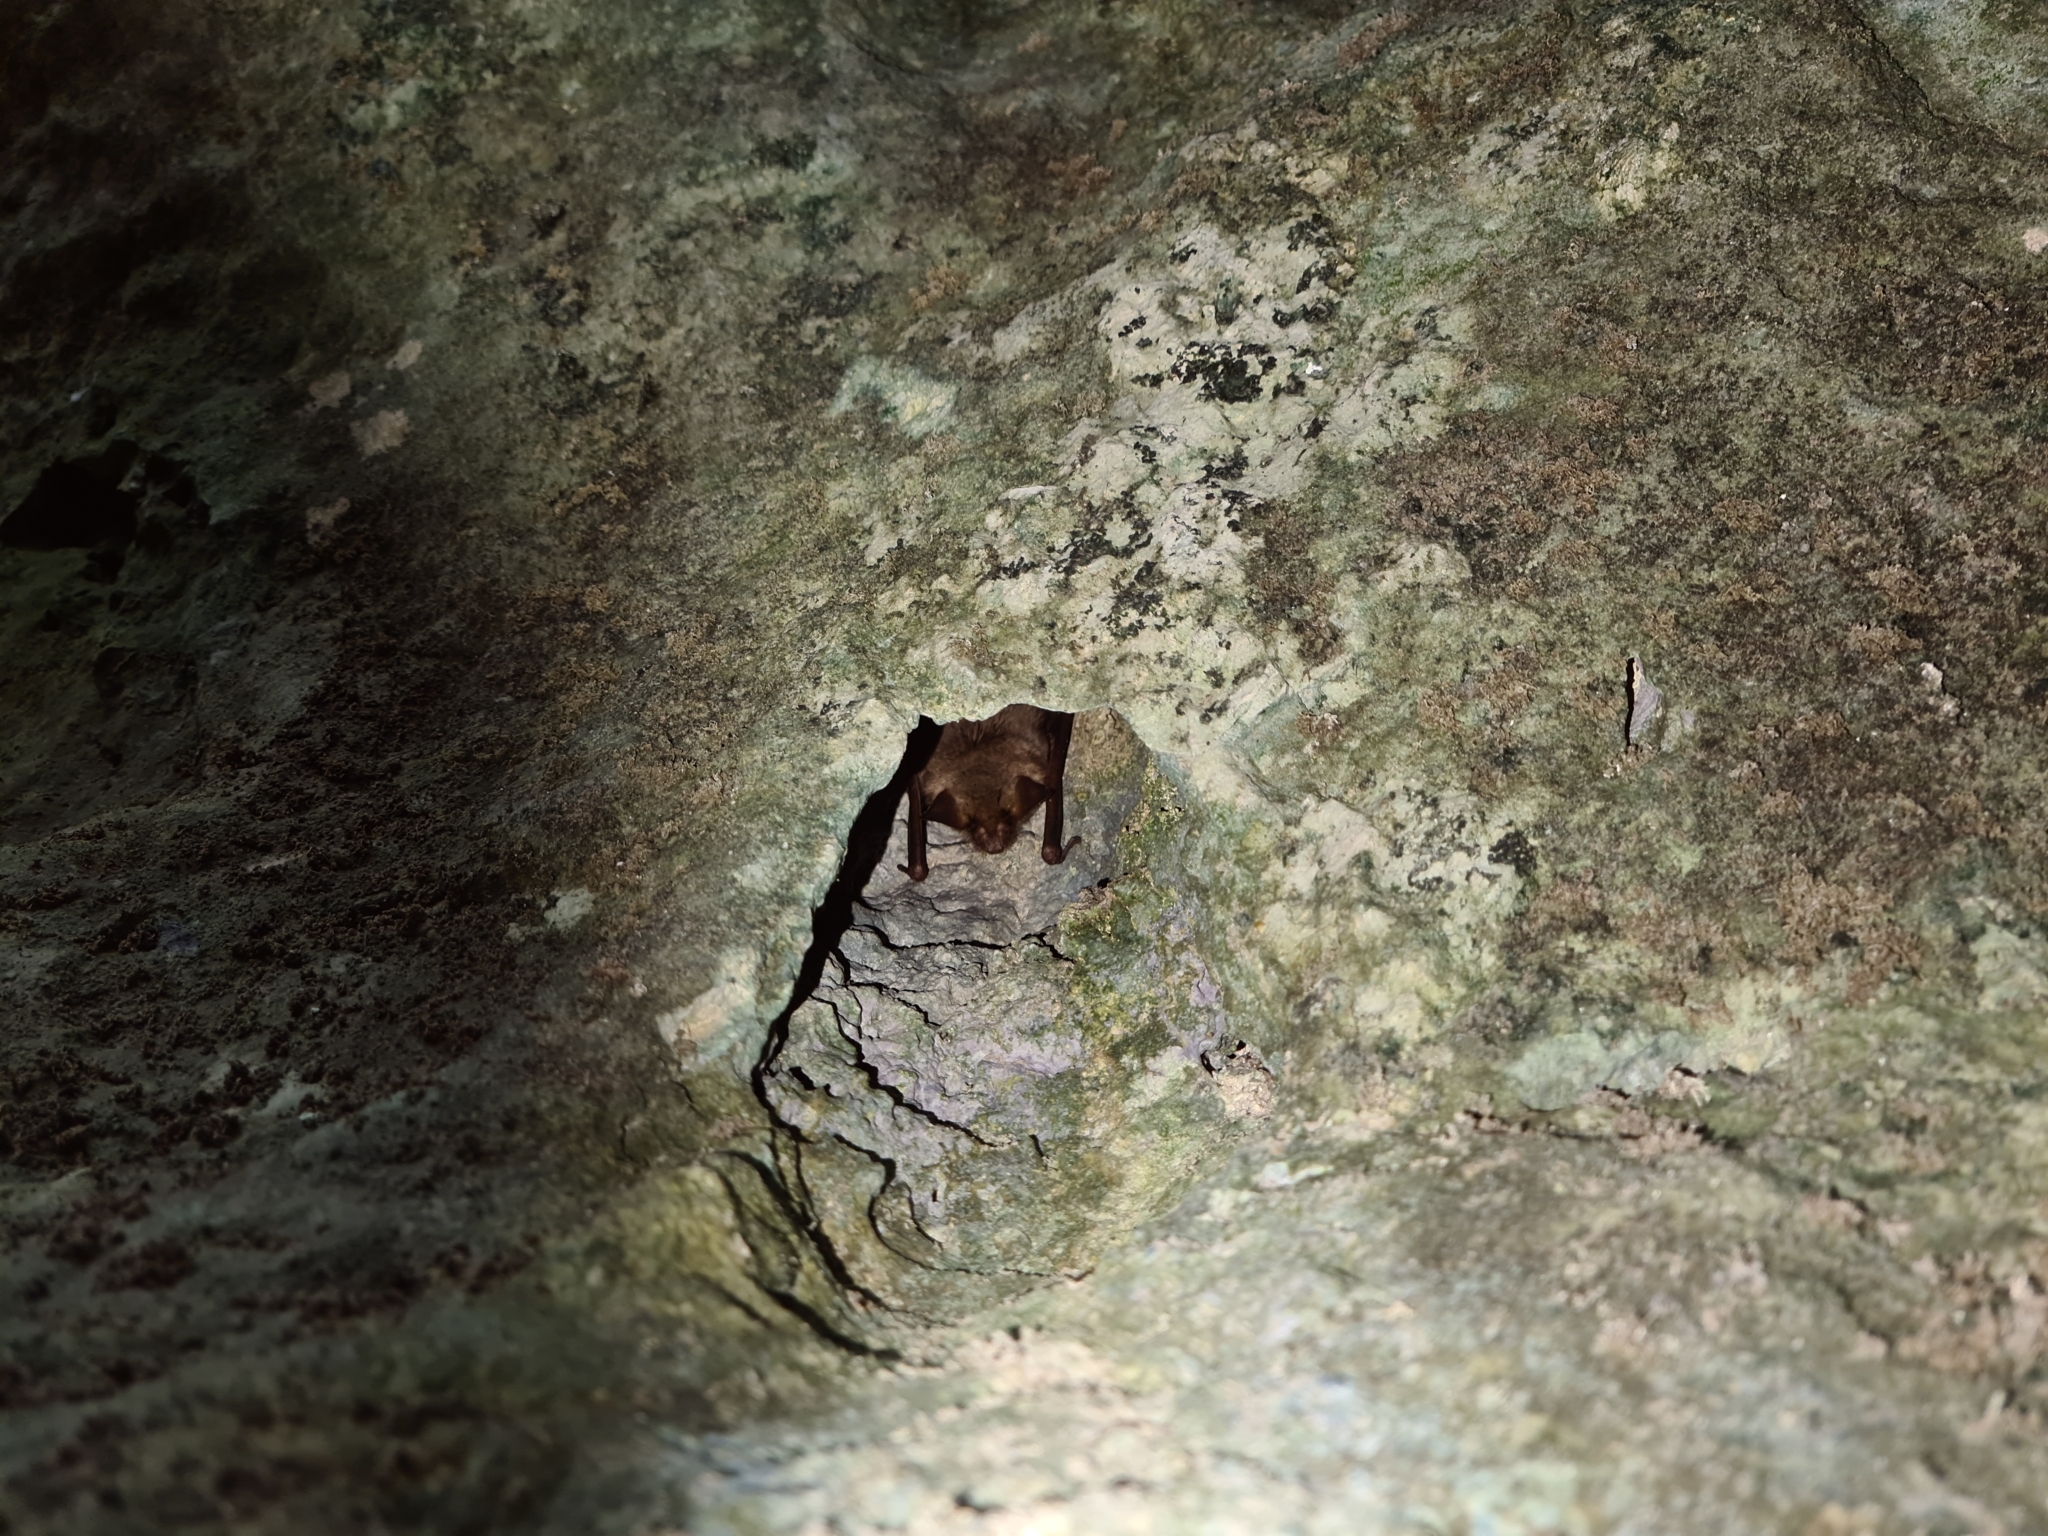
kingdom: Animalia
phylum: Chordata
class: Mammalia
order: Chiroptera
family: Vespertilionidae
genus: Myotis
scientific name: Myotis myotis
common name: Greater mouse-eared bat
